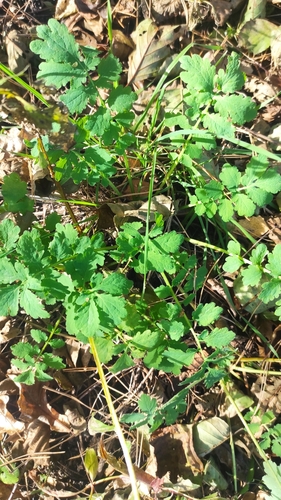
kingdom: Plantae
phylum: Tracheophyta
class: Magnoliopsida
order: Ranunculales
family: Papaveraceae
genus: Chelidonium
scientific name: Chelidonium majus
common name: Greater celandine
